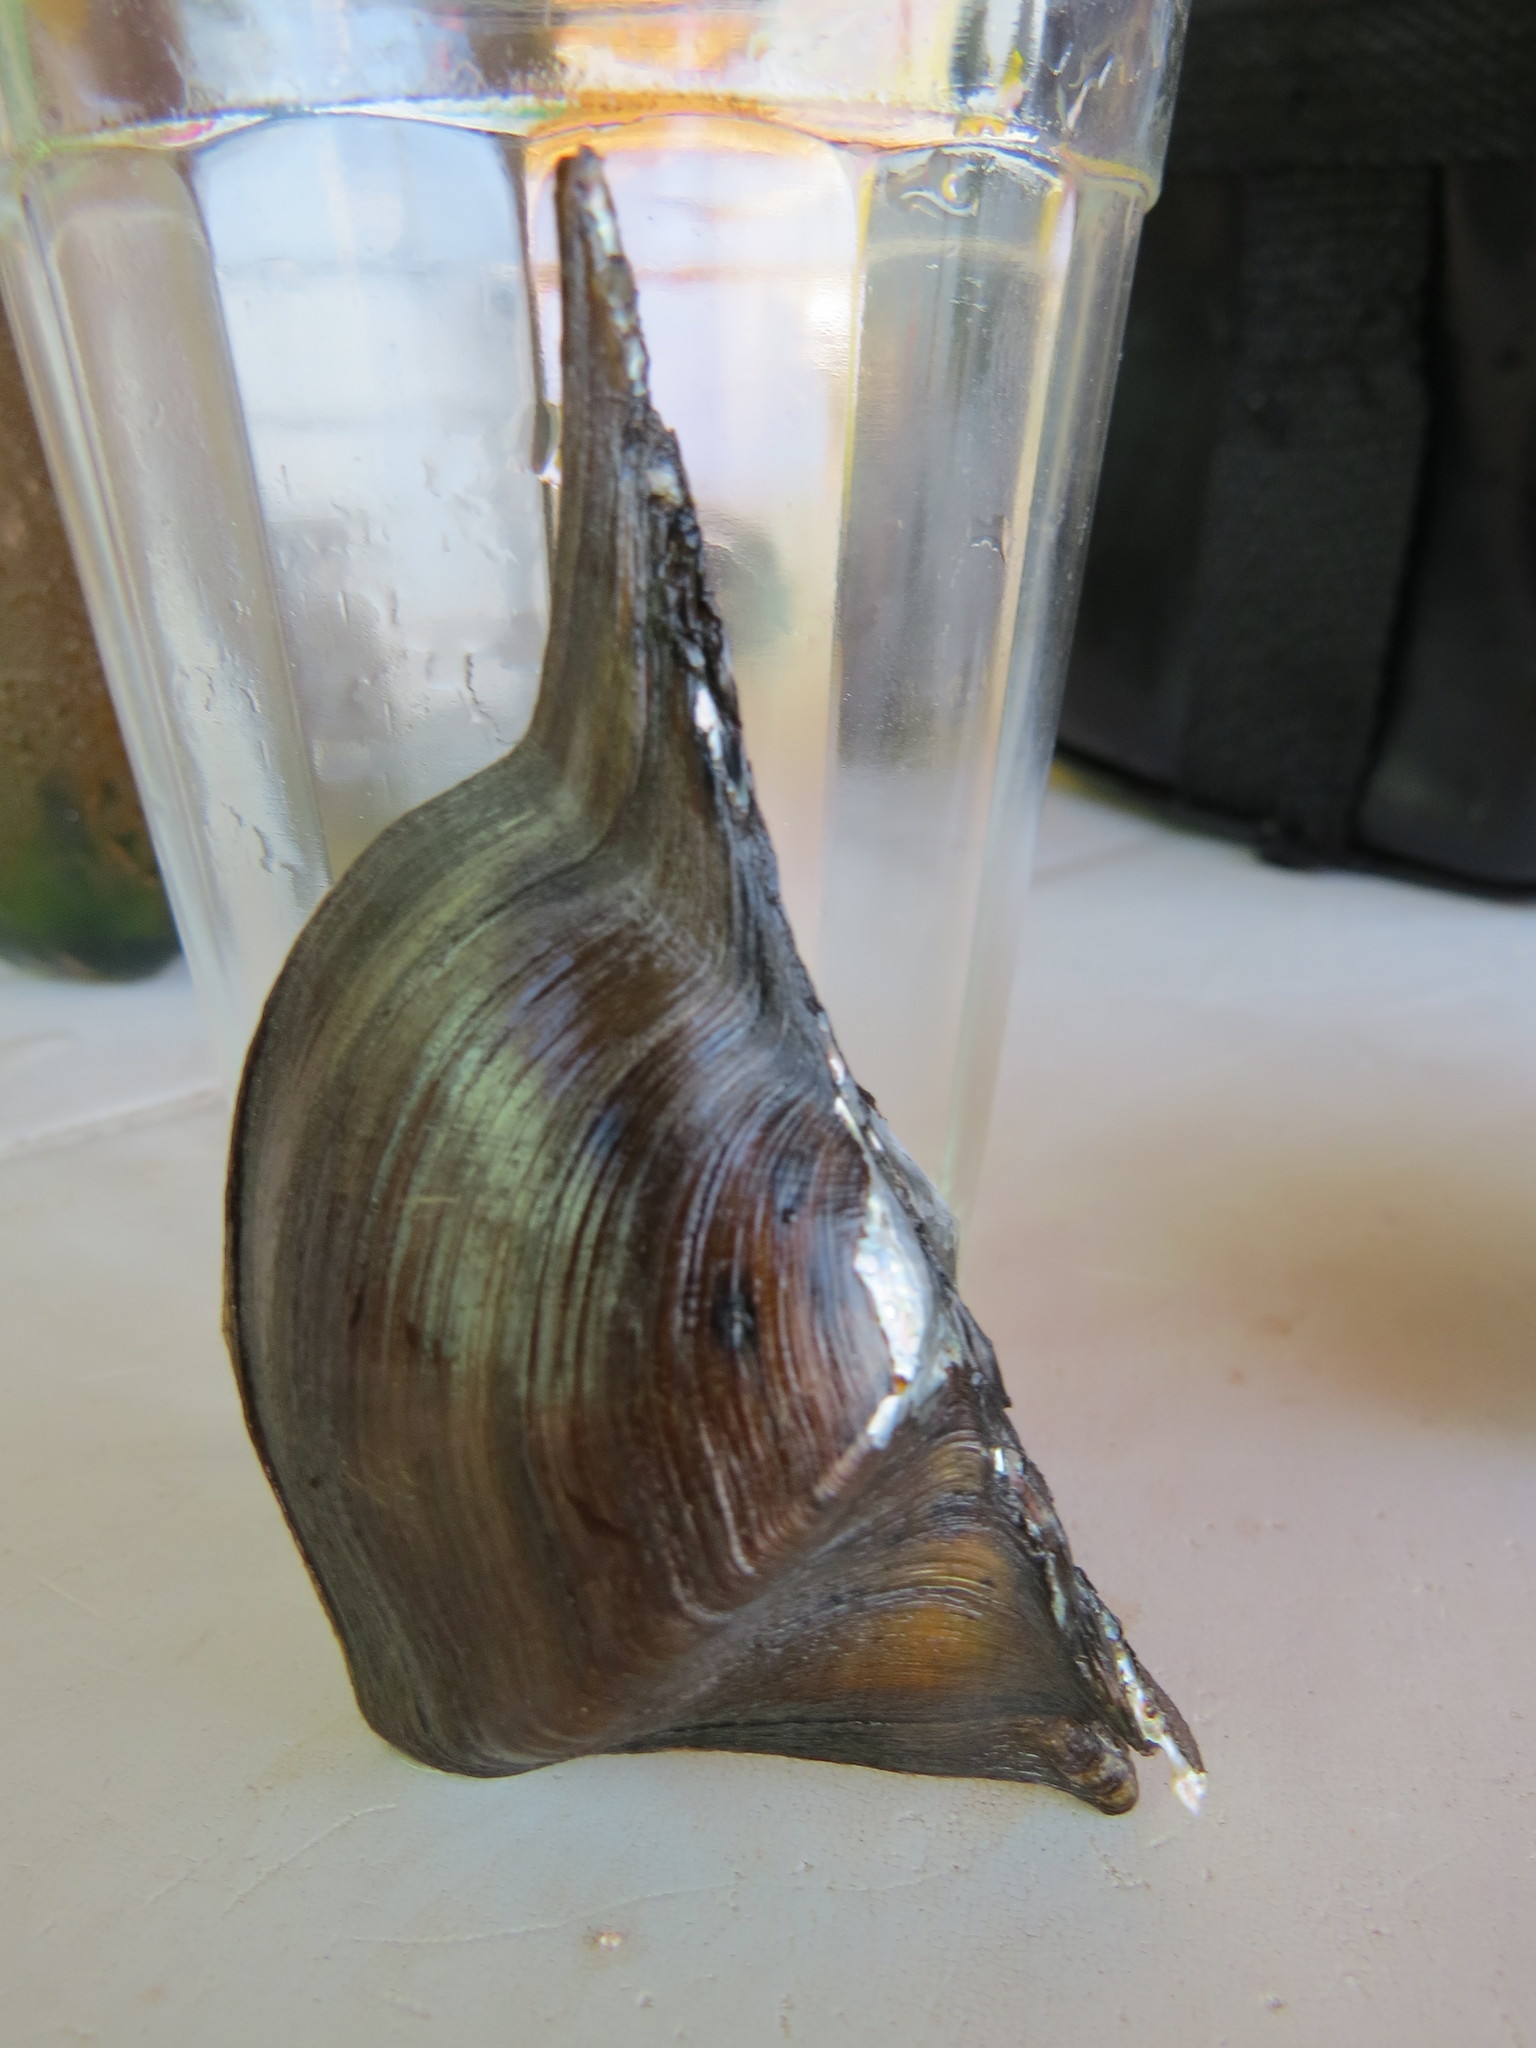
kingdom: Animalia
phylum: Mollusca
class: Bivalvia
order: Unionida
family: Hyriidae
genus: Prisodon
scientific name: Prisodon syrmatophorus
